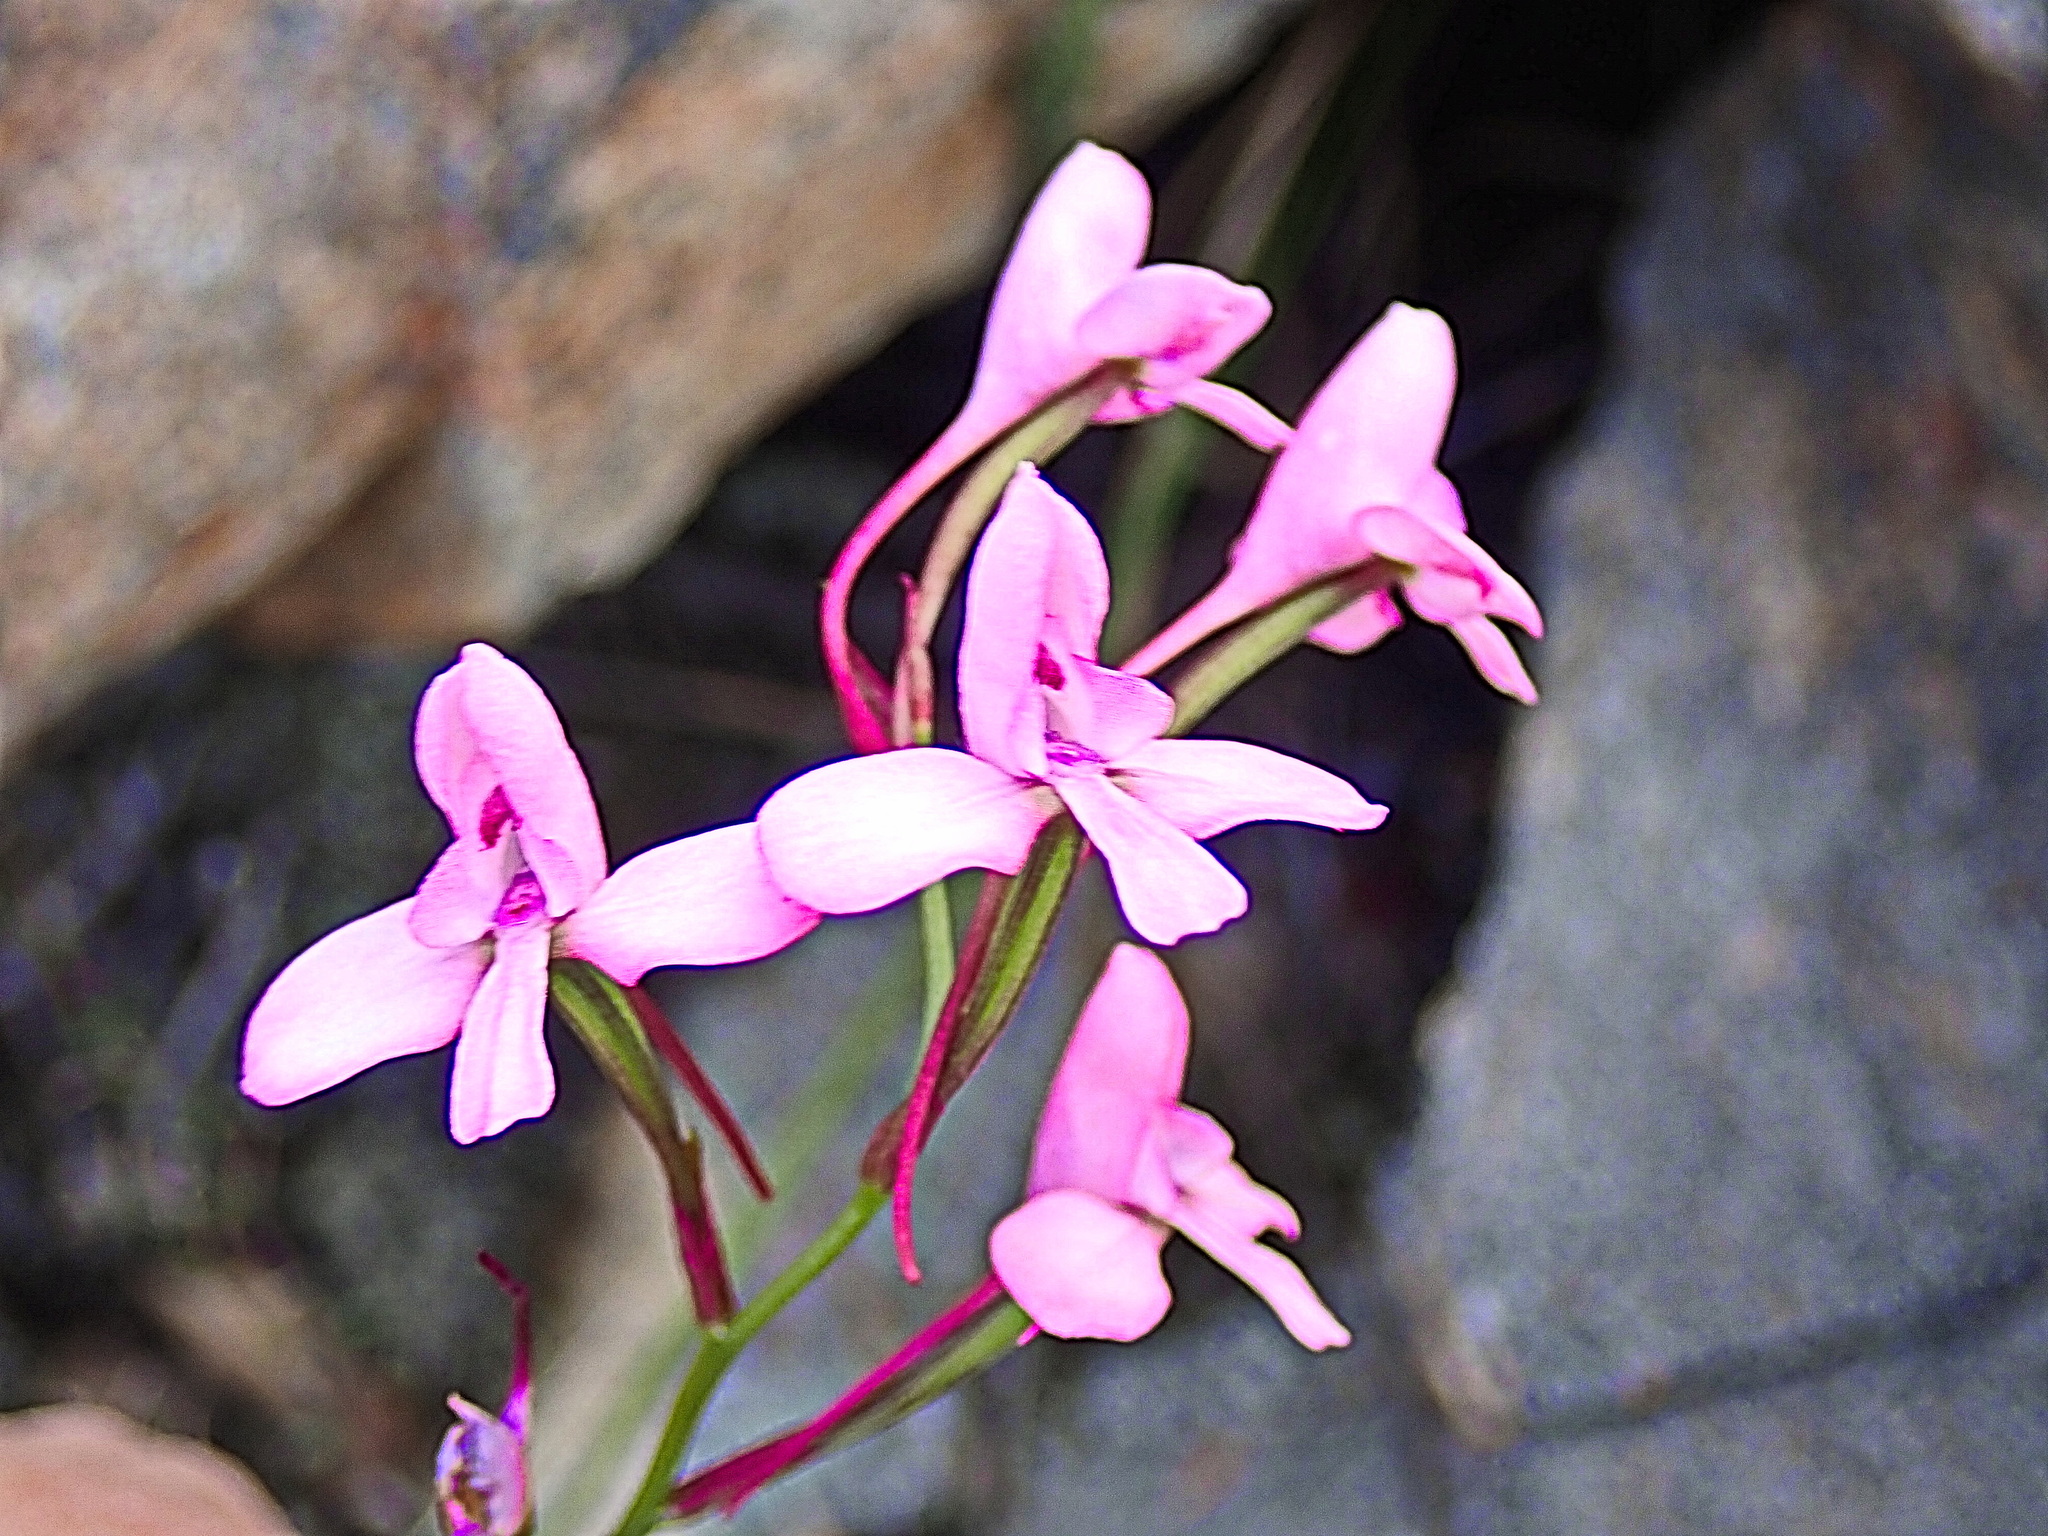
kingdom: Plantae
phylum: Tracheophyta
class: Liliopsida
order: Asparagales
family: Orchidaceae
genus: Disa
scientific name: Disa arida
